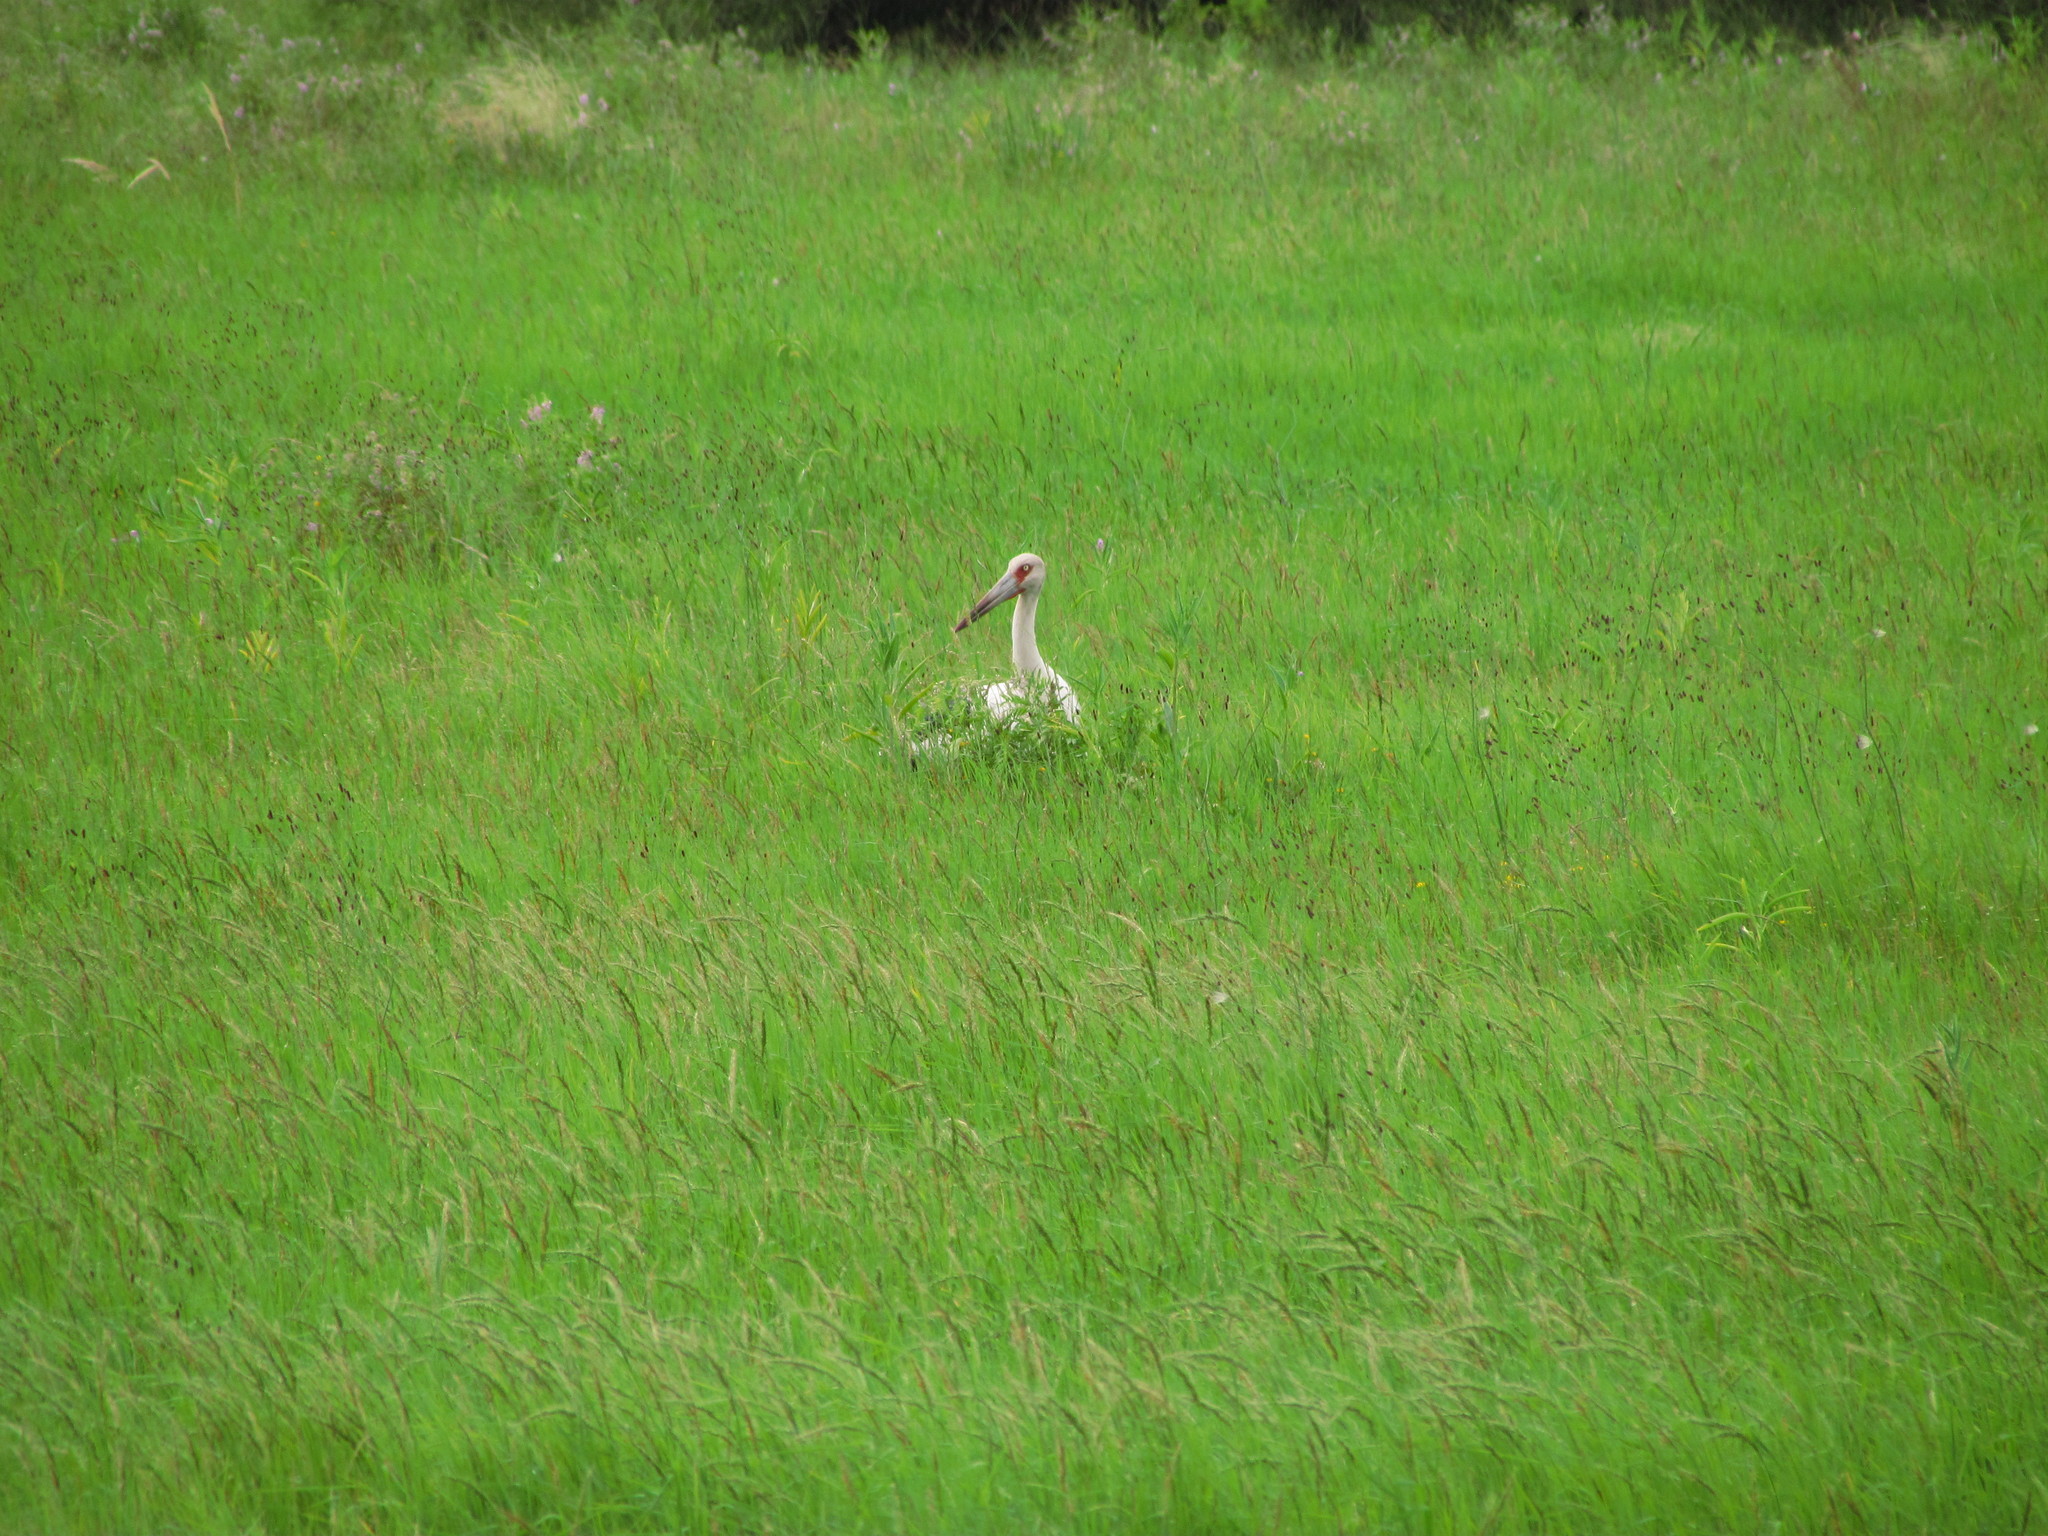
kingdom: Animalia
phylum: Chordata
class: Aves
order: Ciconiiformes
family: Ciconiidae
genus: Ciconia
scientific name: Ciconia maguari
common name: Maguari stork
